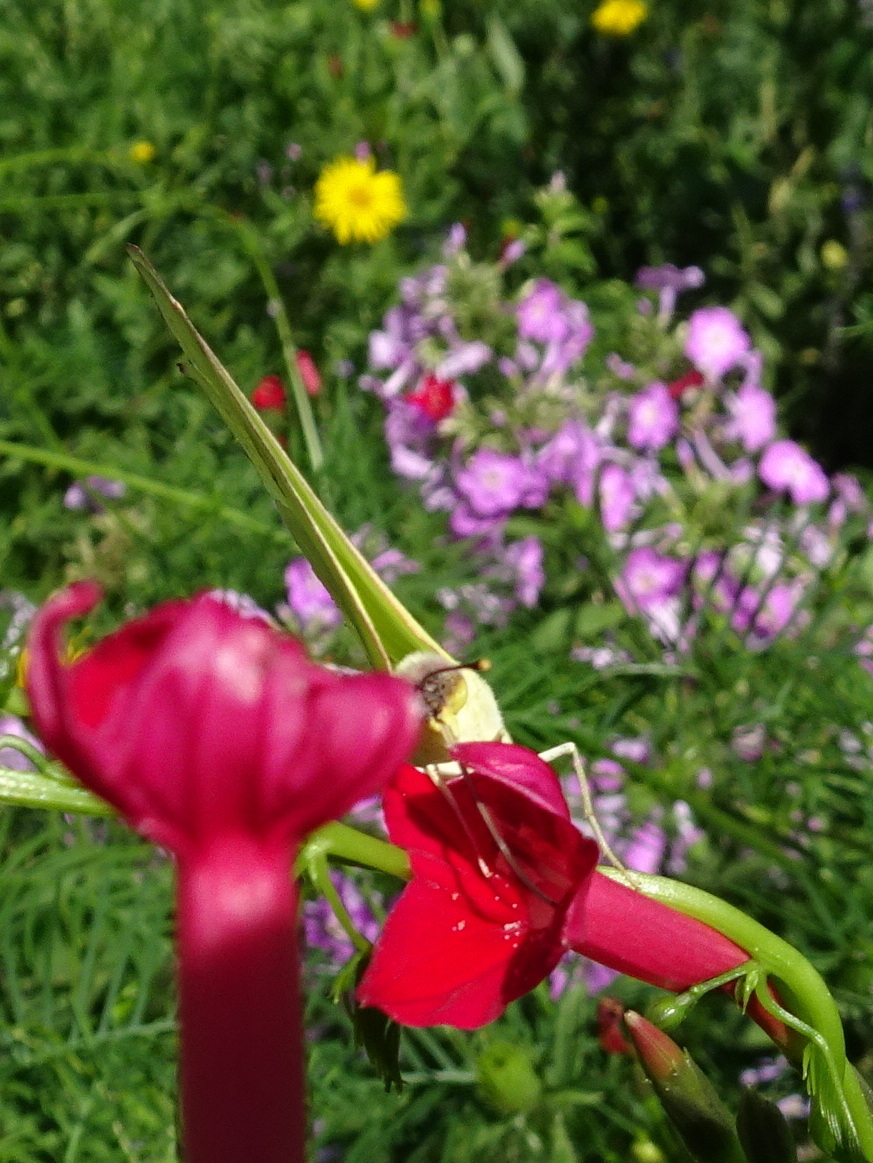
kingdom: Animalia
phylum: Arthropoda
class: Insecta
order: Lepidoptera
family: Pieridae
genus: Phoebis
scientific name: Phoebis sennae
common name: Cloudless sulphur
